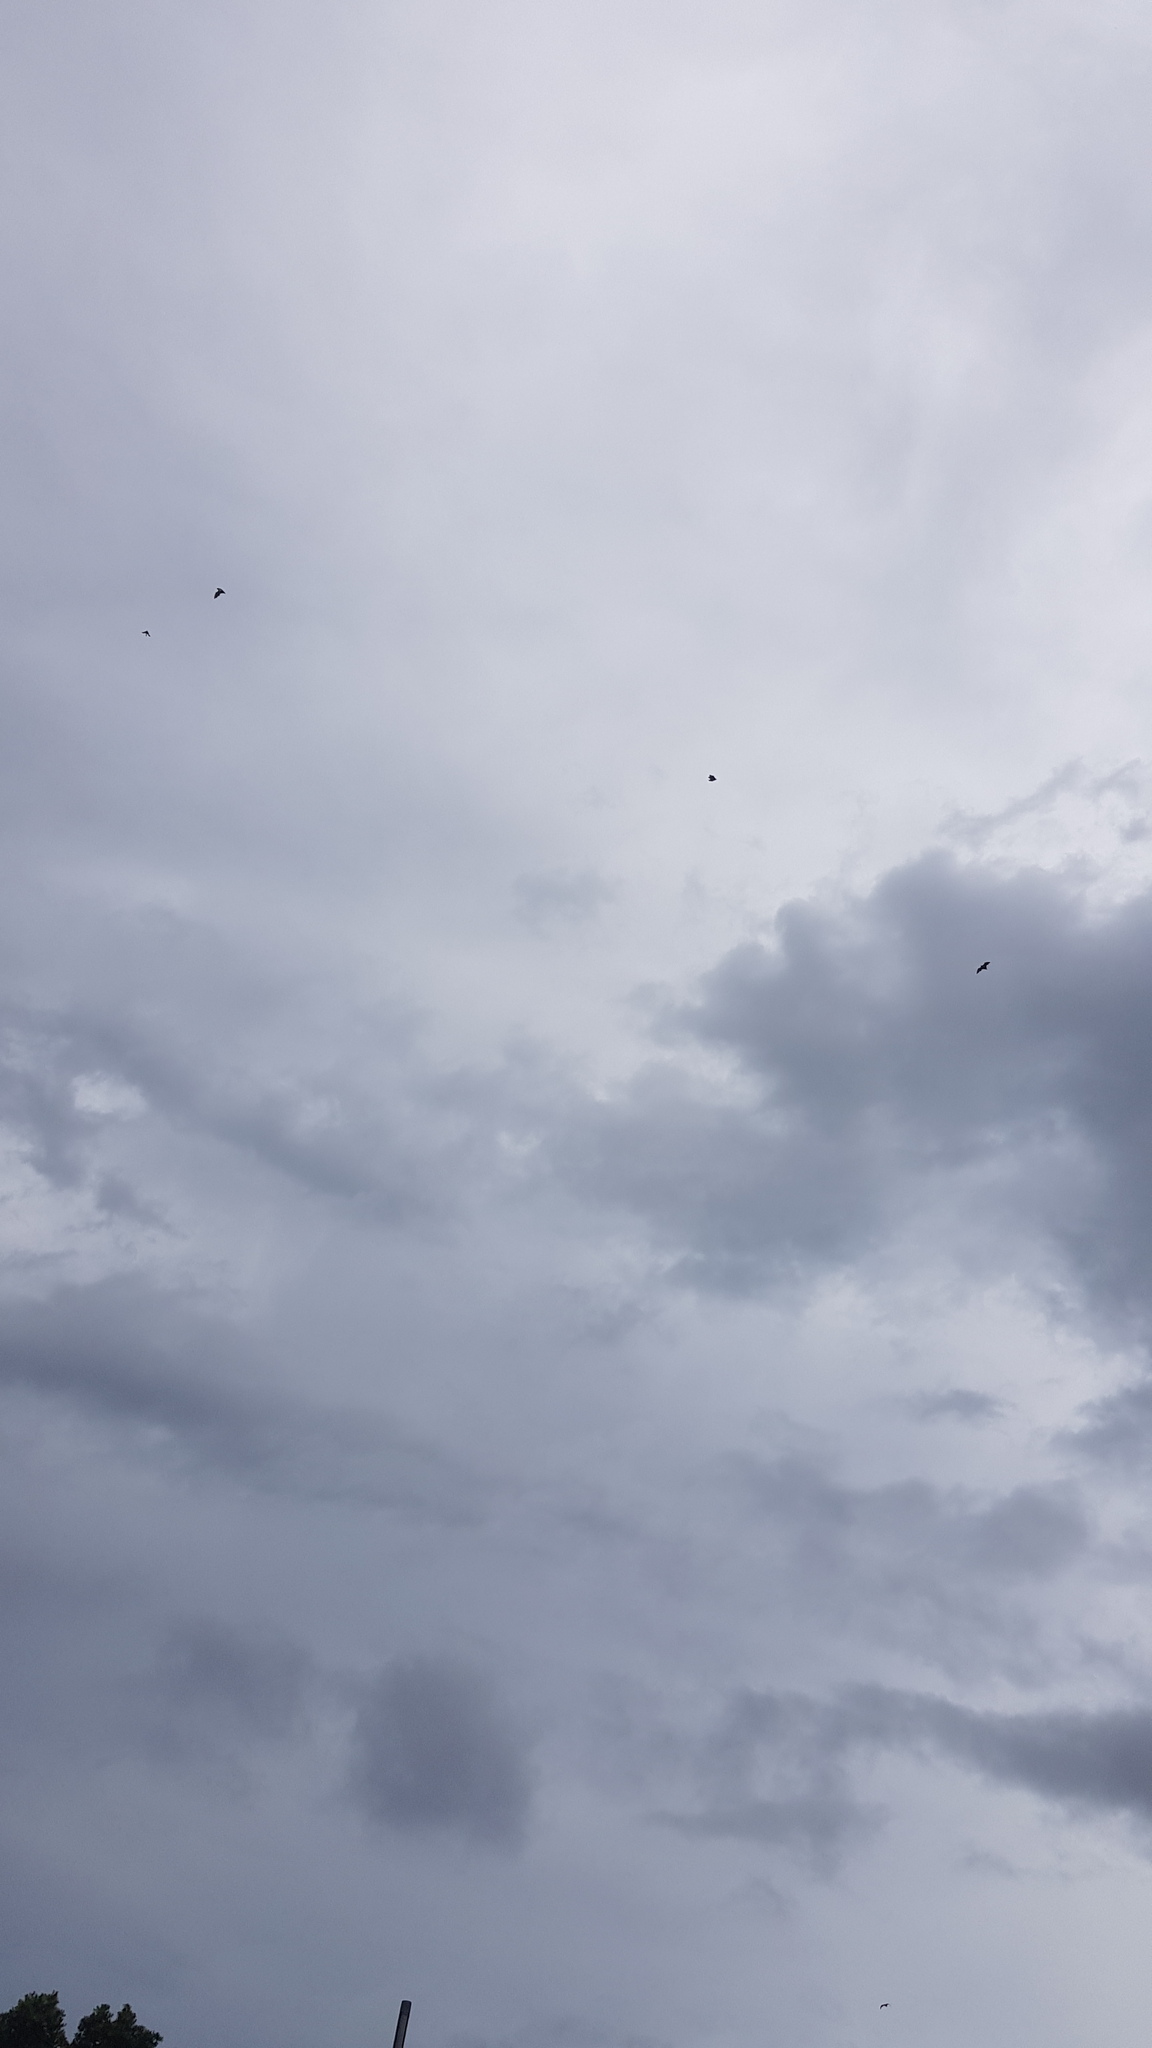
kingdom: Animalia
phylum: Chordata
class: Mammalia
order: Chiroptera
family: Pteropodidae
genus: Pteropus
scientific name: Pteropus poliocephalus
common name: Gray-headed flying fox
